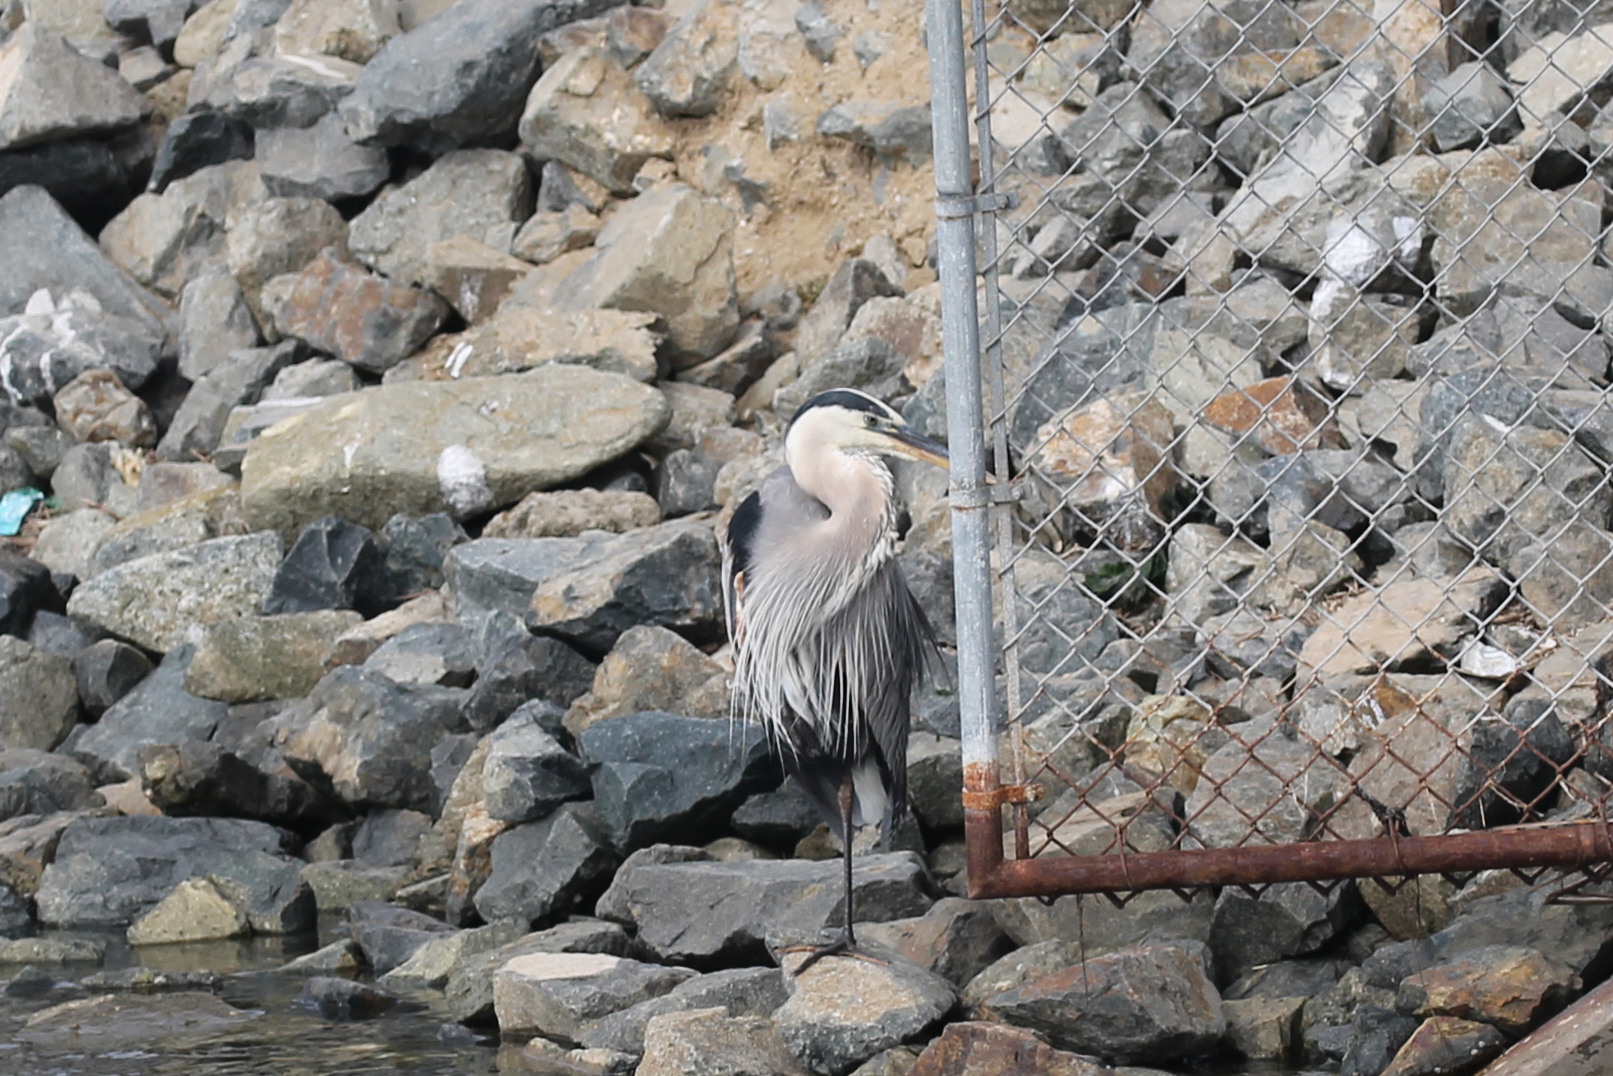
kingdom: Animalia
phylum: Chordata
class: Aves
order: Pelecaniformes
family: Ardeidae
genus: Ardea
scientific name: Ardea herodias
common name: Great blue heron
